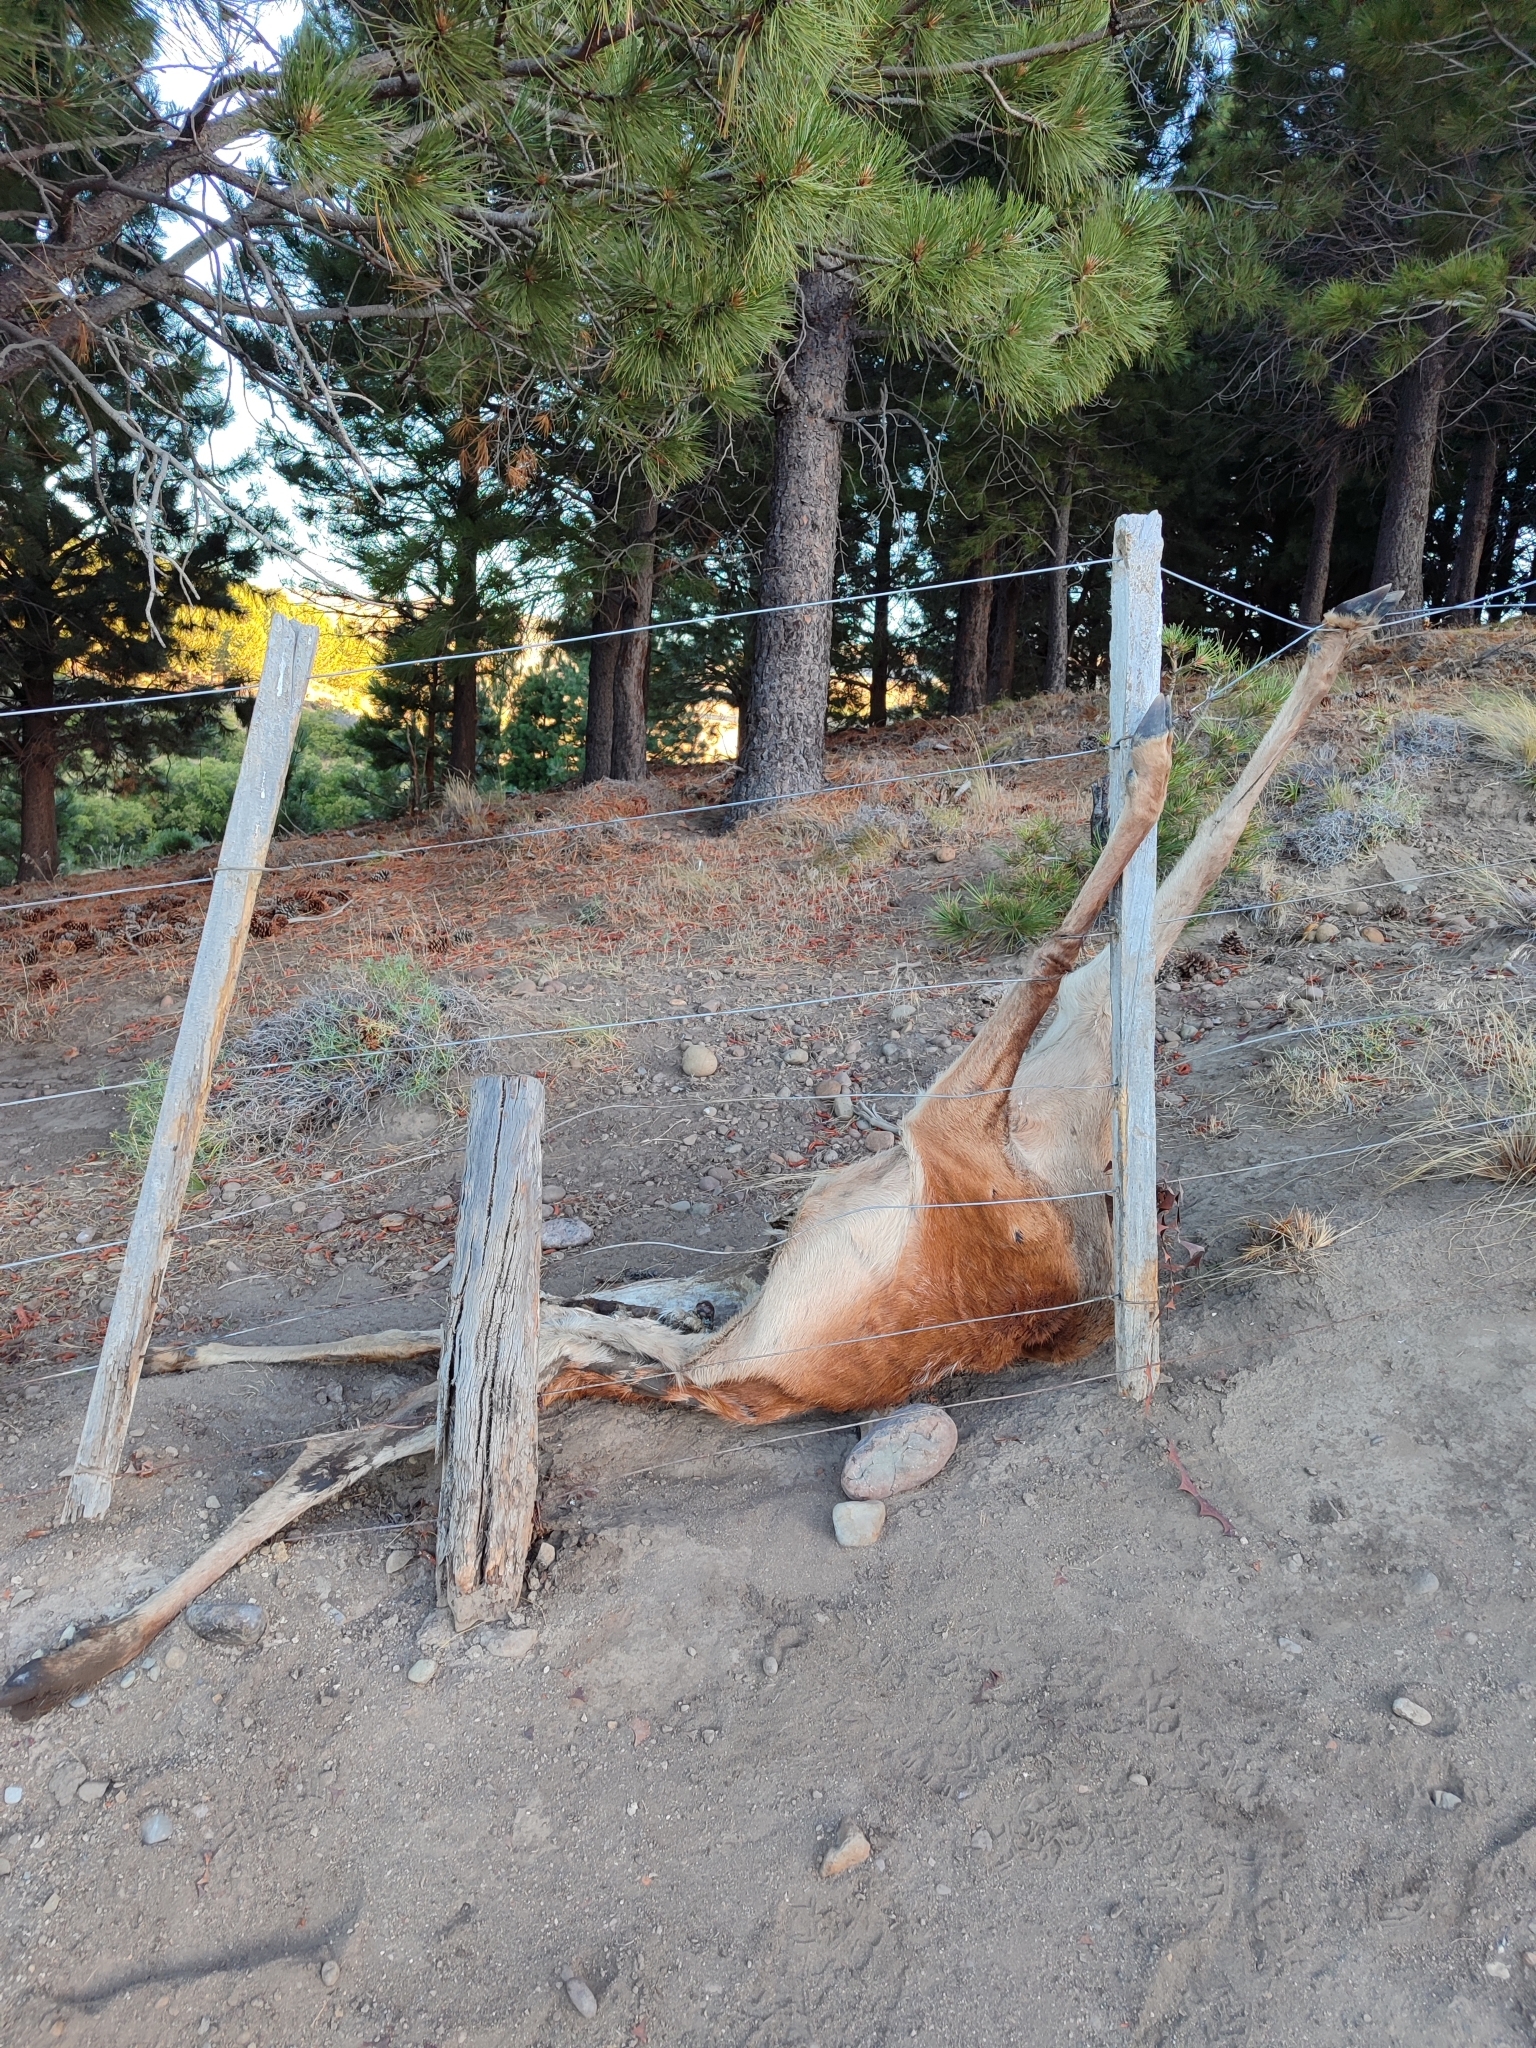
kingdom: Animalia
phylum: Chordata
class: Mammalia
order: Artiodactyla
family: Cervidae
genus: Cervus
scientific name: Cervus elaphus
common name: Red deer
